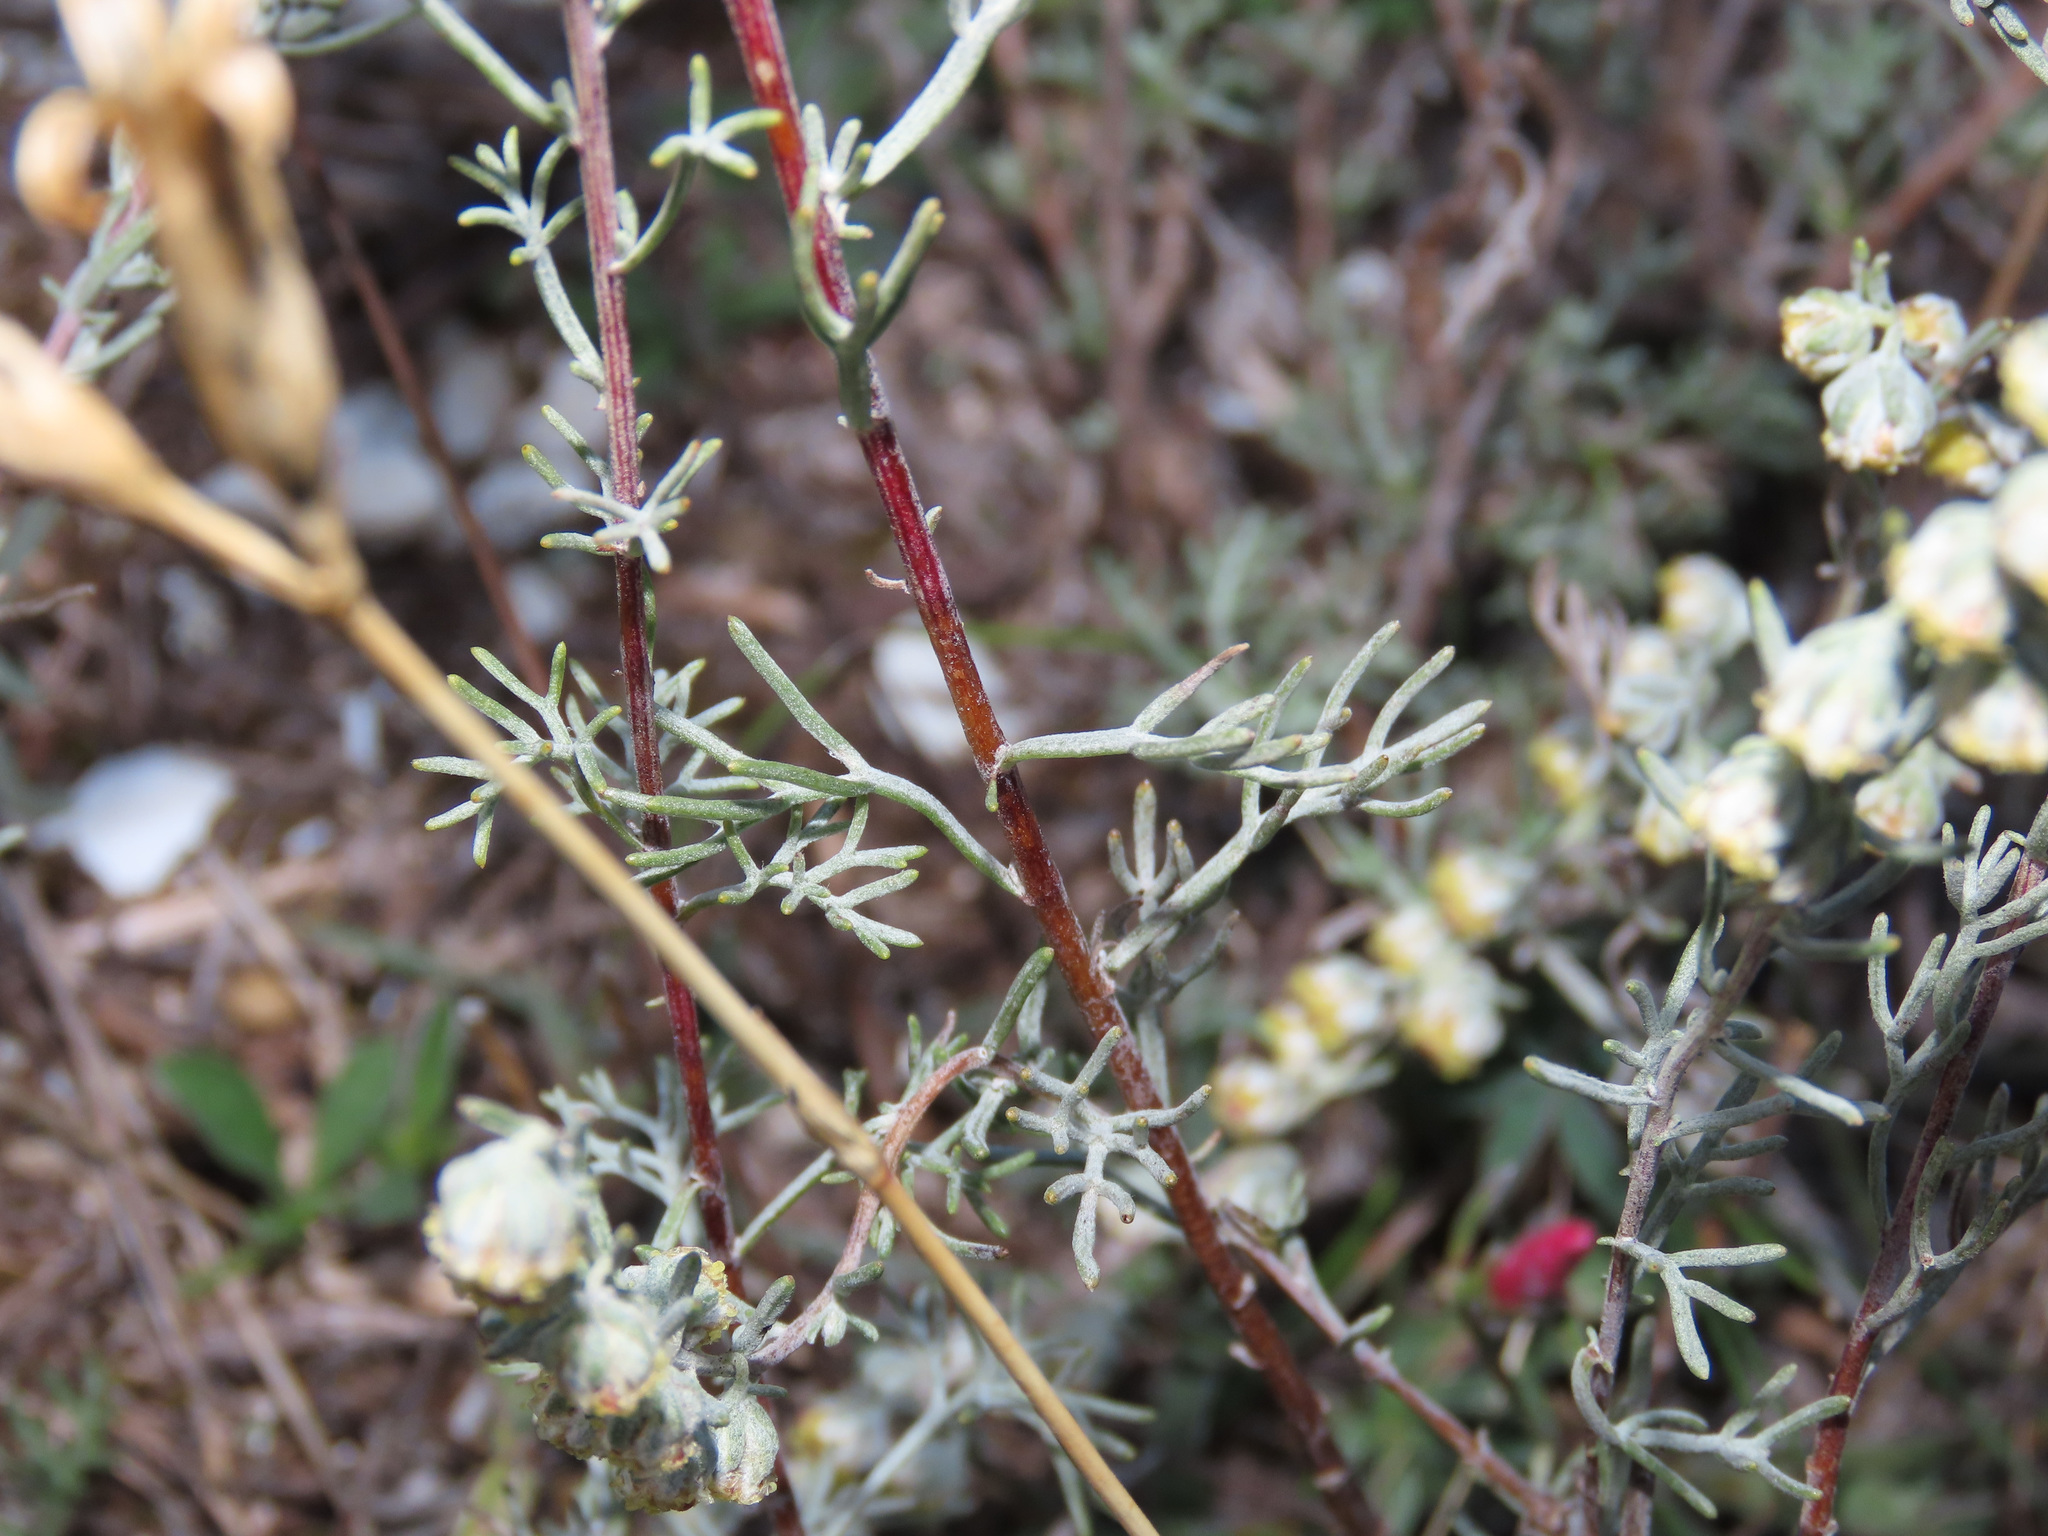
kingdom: Plantae
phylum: Tracheophyta
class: Magnoliopsida
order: Asterales
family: Asteraceae
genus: Artemisia
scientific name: Artemisia alba
